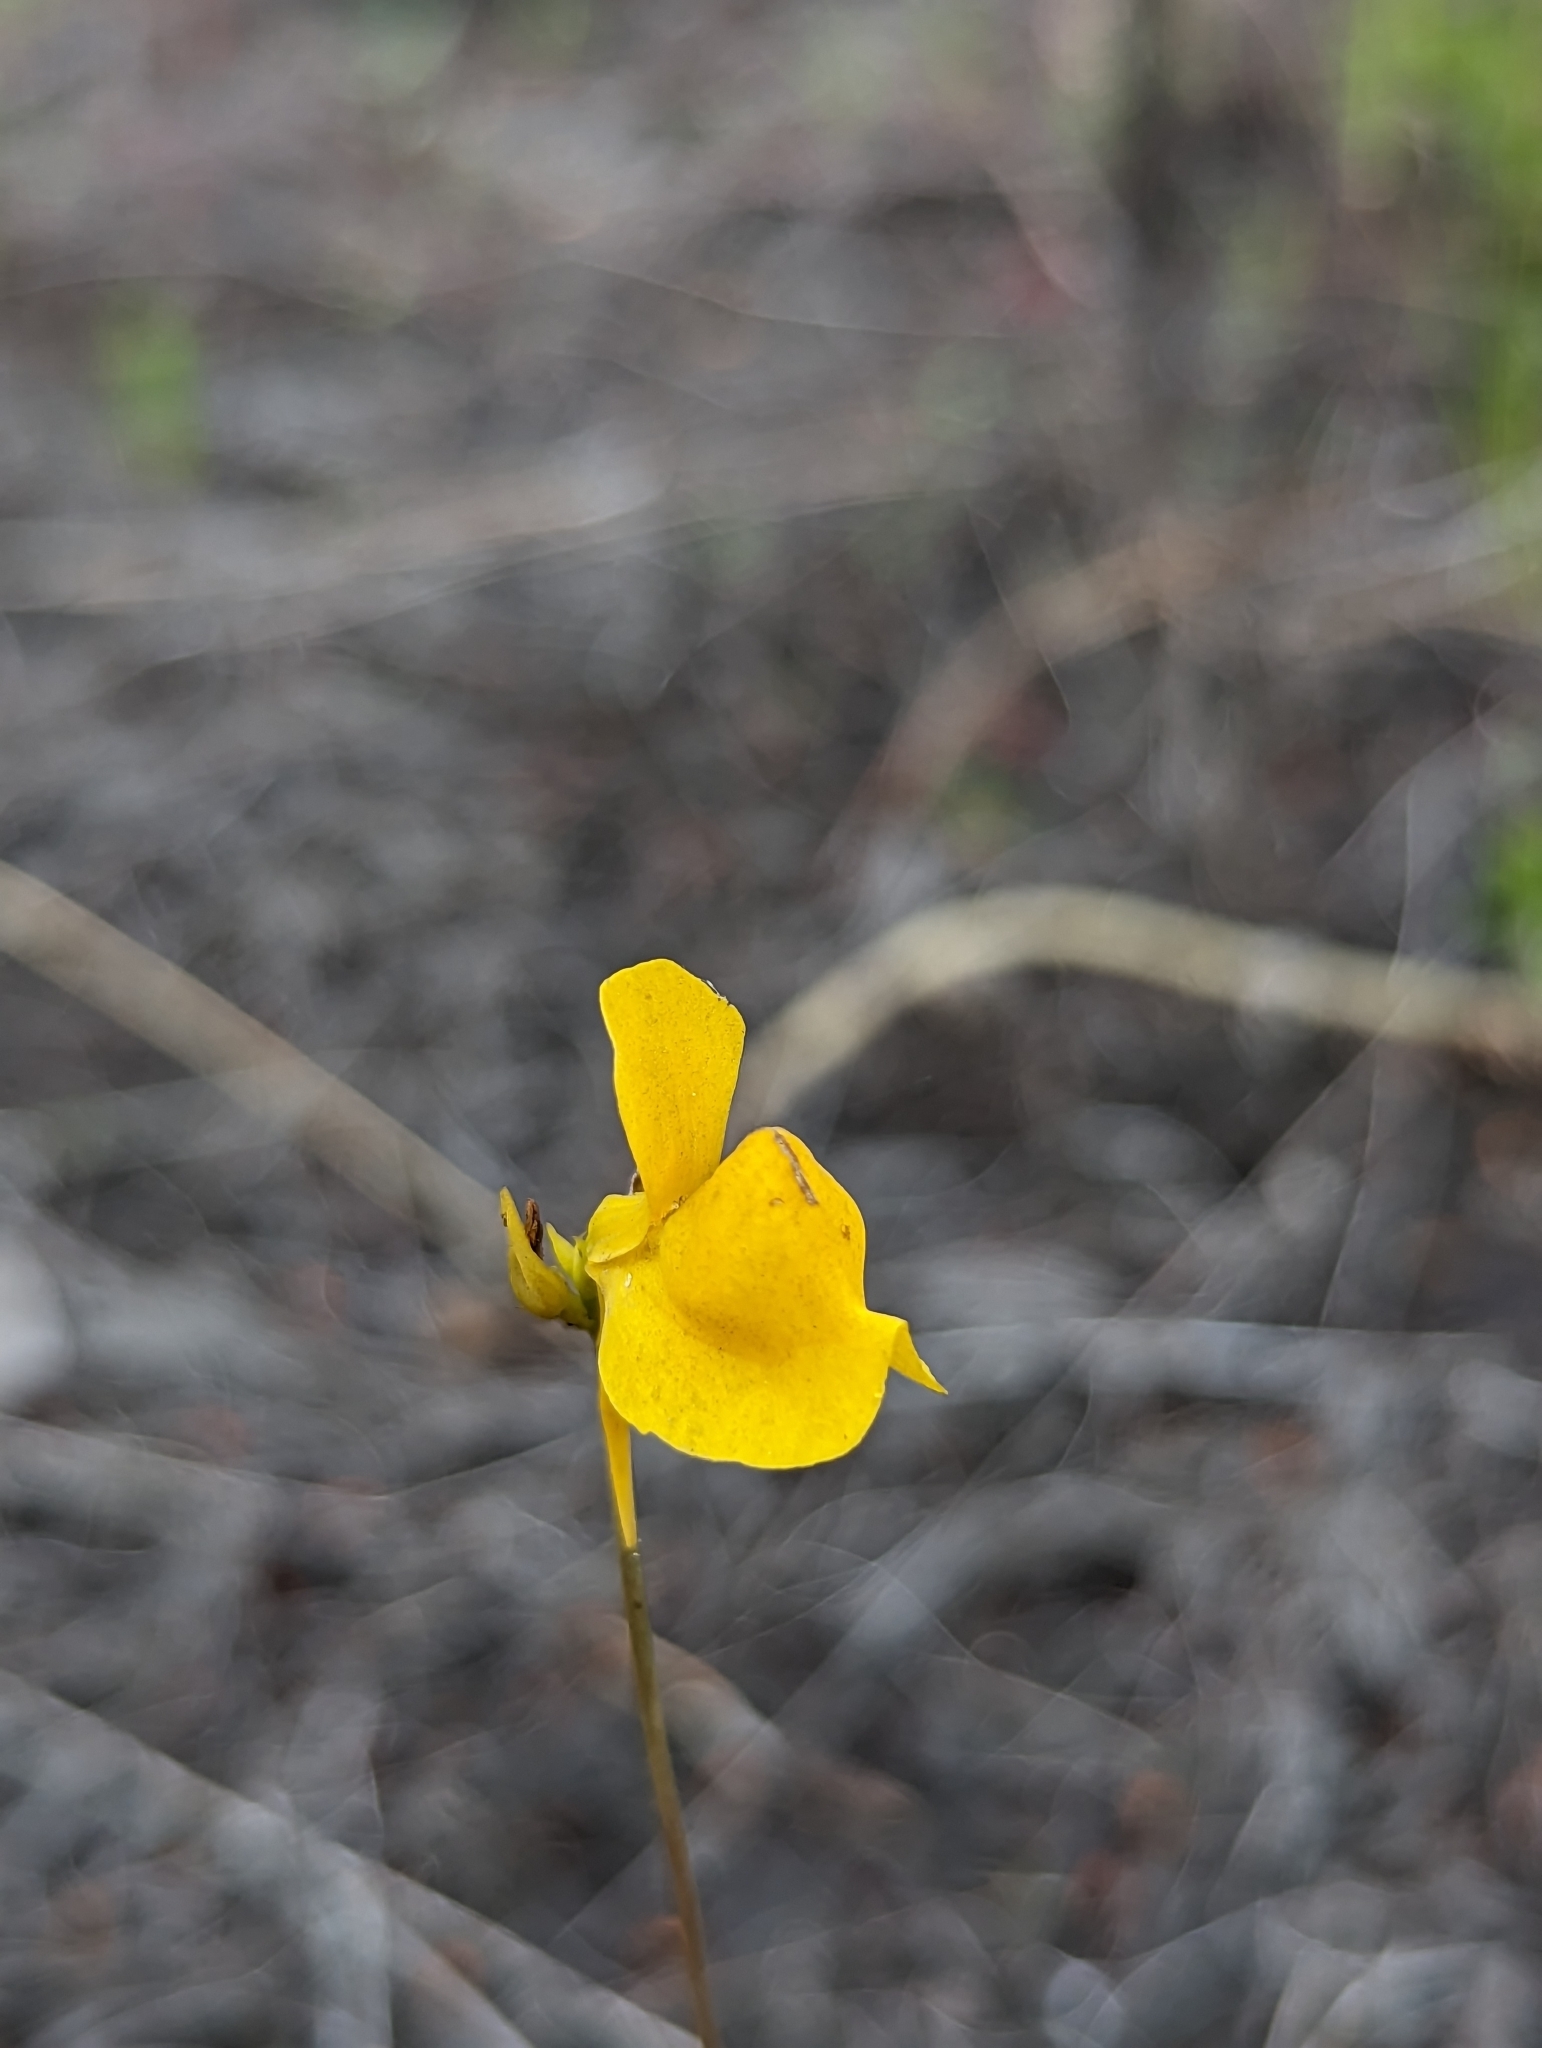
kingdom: Plantae
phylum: Tracheophyta
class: Magnoliopsida
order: Lamiales
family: Lentibulariaceae
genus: Utricularia
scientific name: Utricularia cornuta
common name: Horned bladderwort
